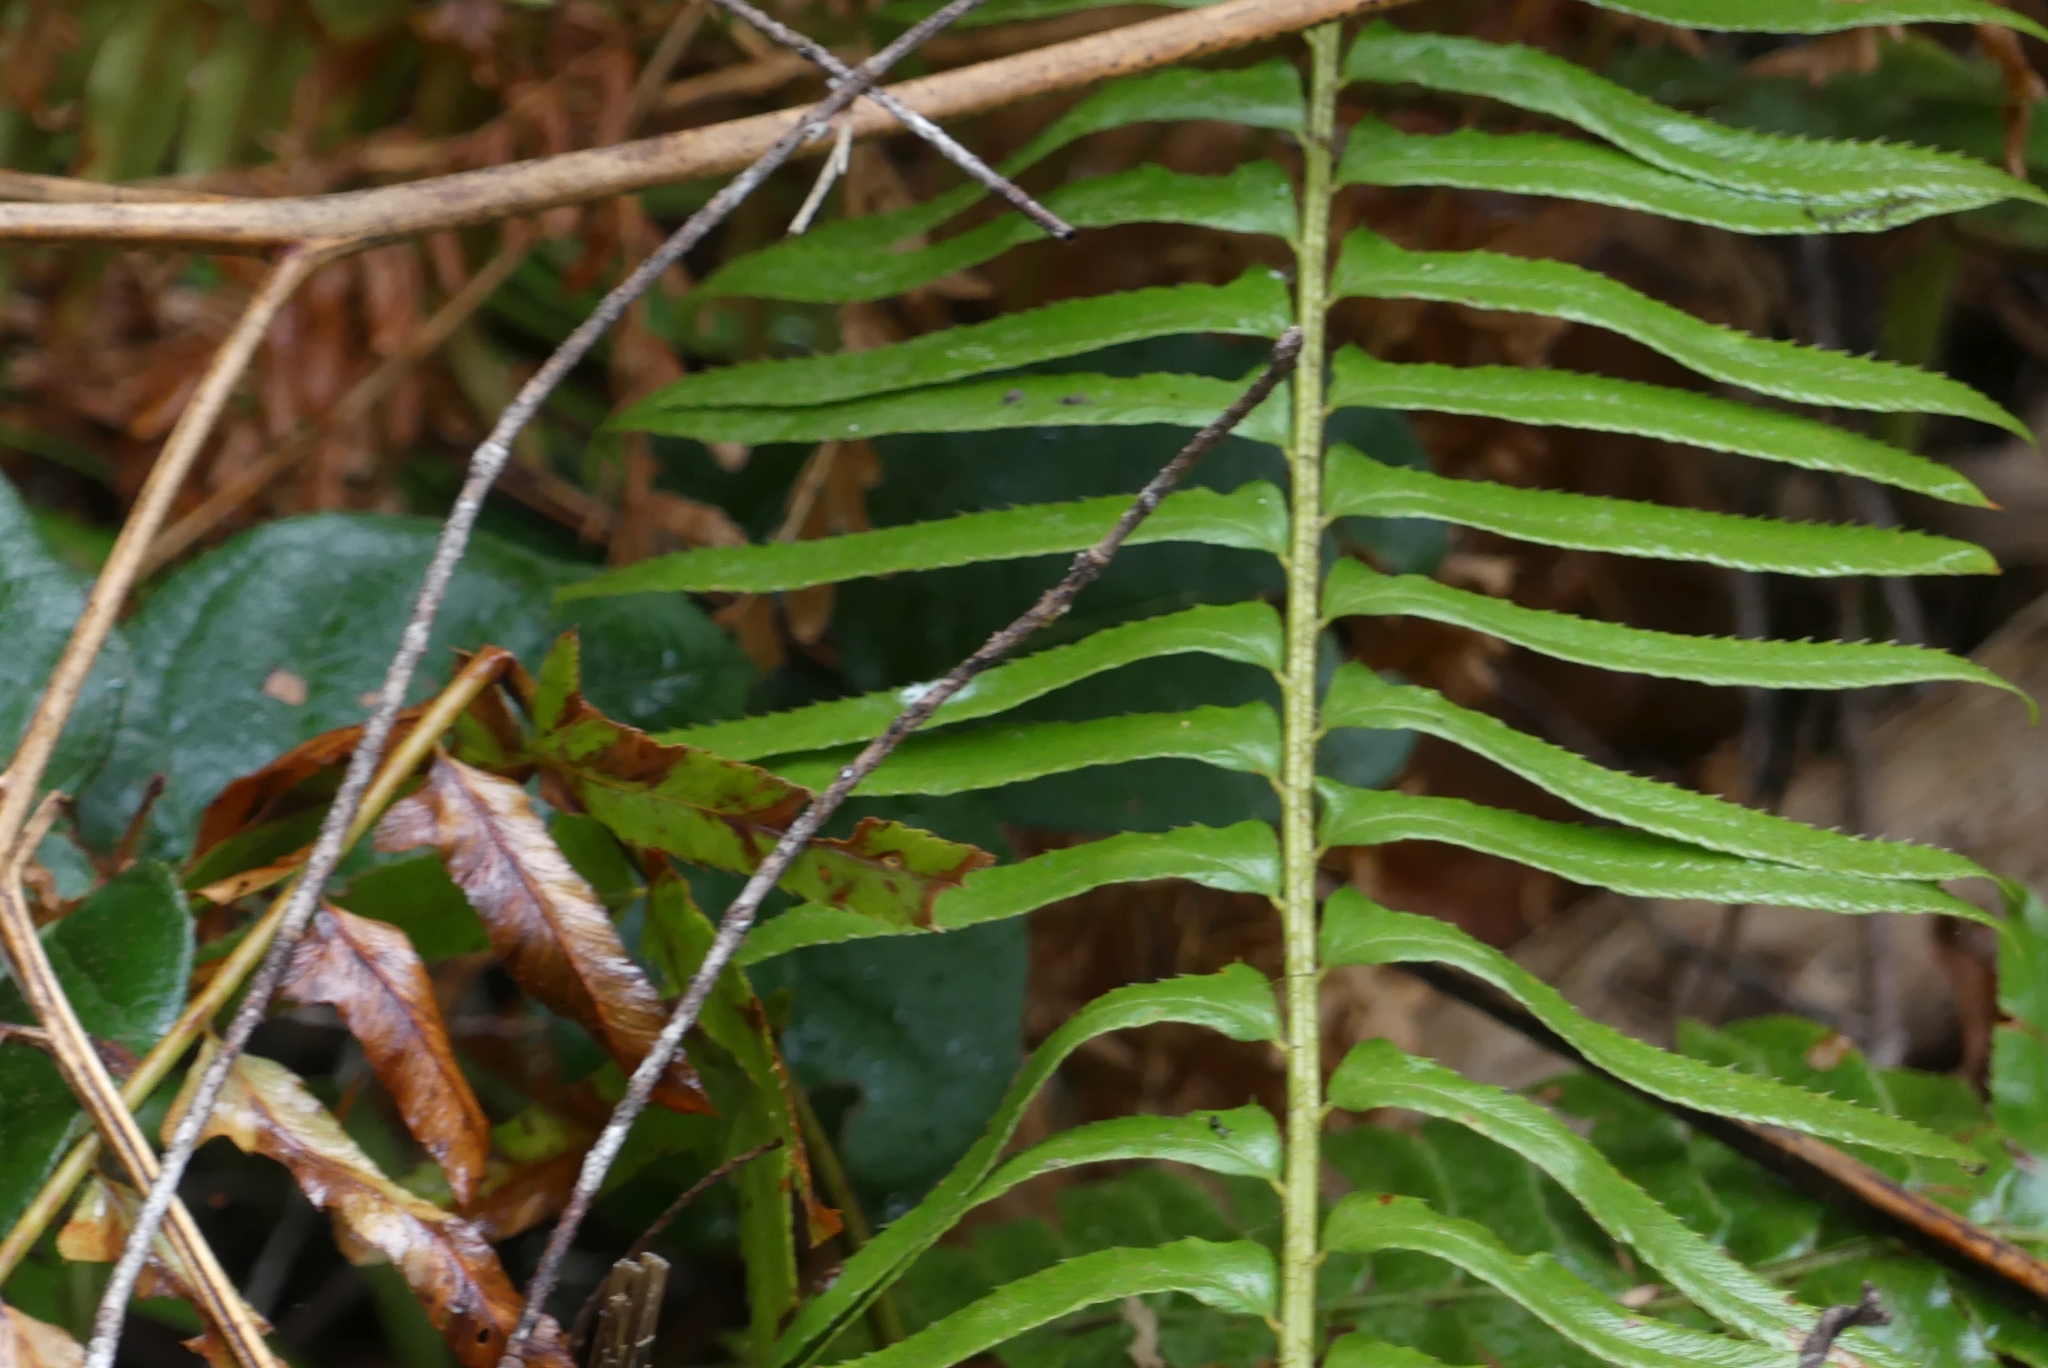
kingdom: Plantae
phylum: Tracheophyta
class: Polypodiopsida
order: Polypodiales
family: Dryopteridaceae
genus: Polystichum
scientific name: Polystichum munitum
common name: Western sword-fern
